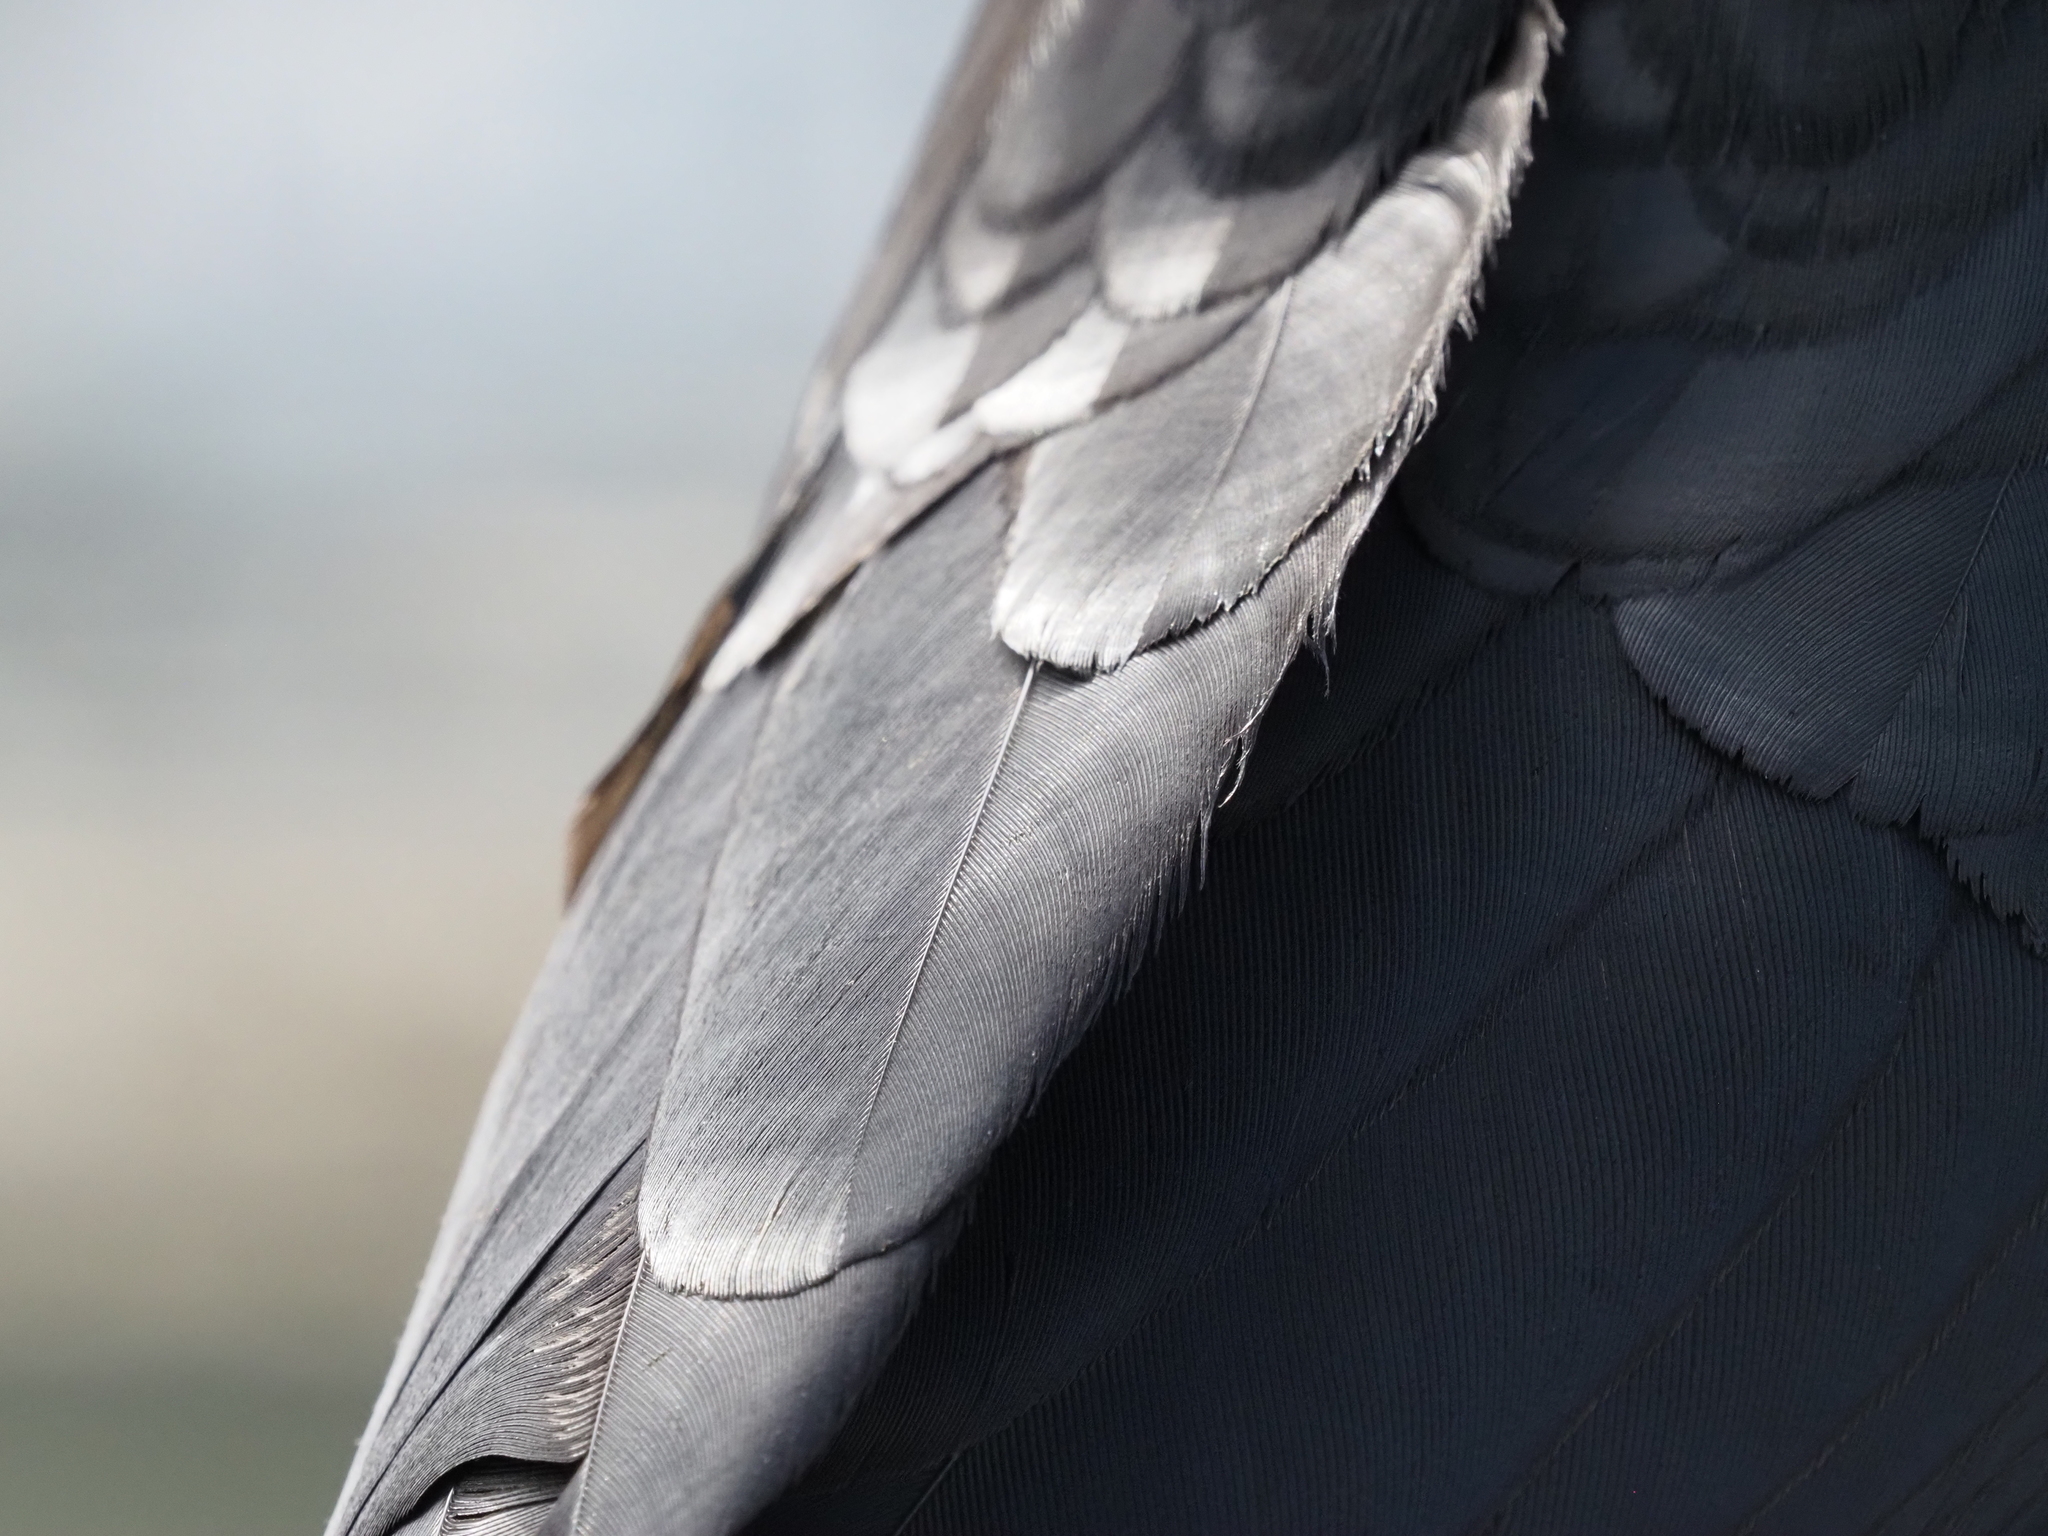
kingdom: Animalia
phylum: Chordata
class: Aves
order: Passeriformes
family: Corvidae
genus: Corvus
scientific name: Corvus brachyrhynchos
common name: American crow
